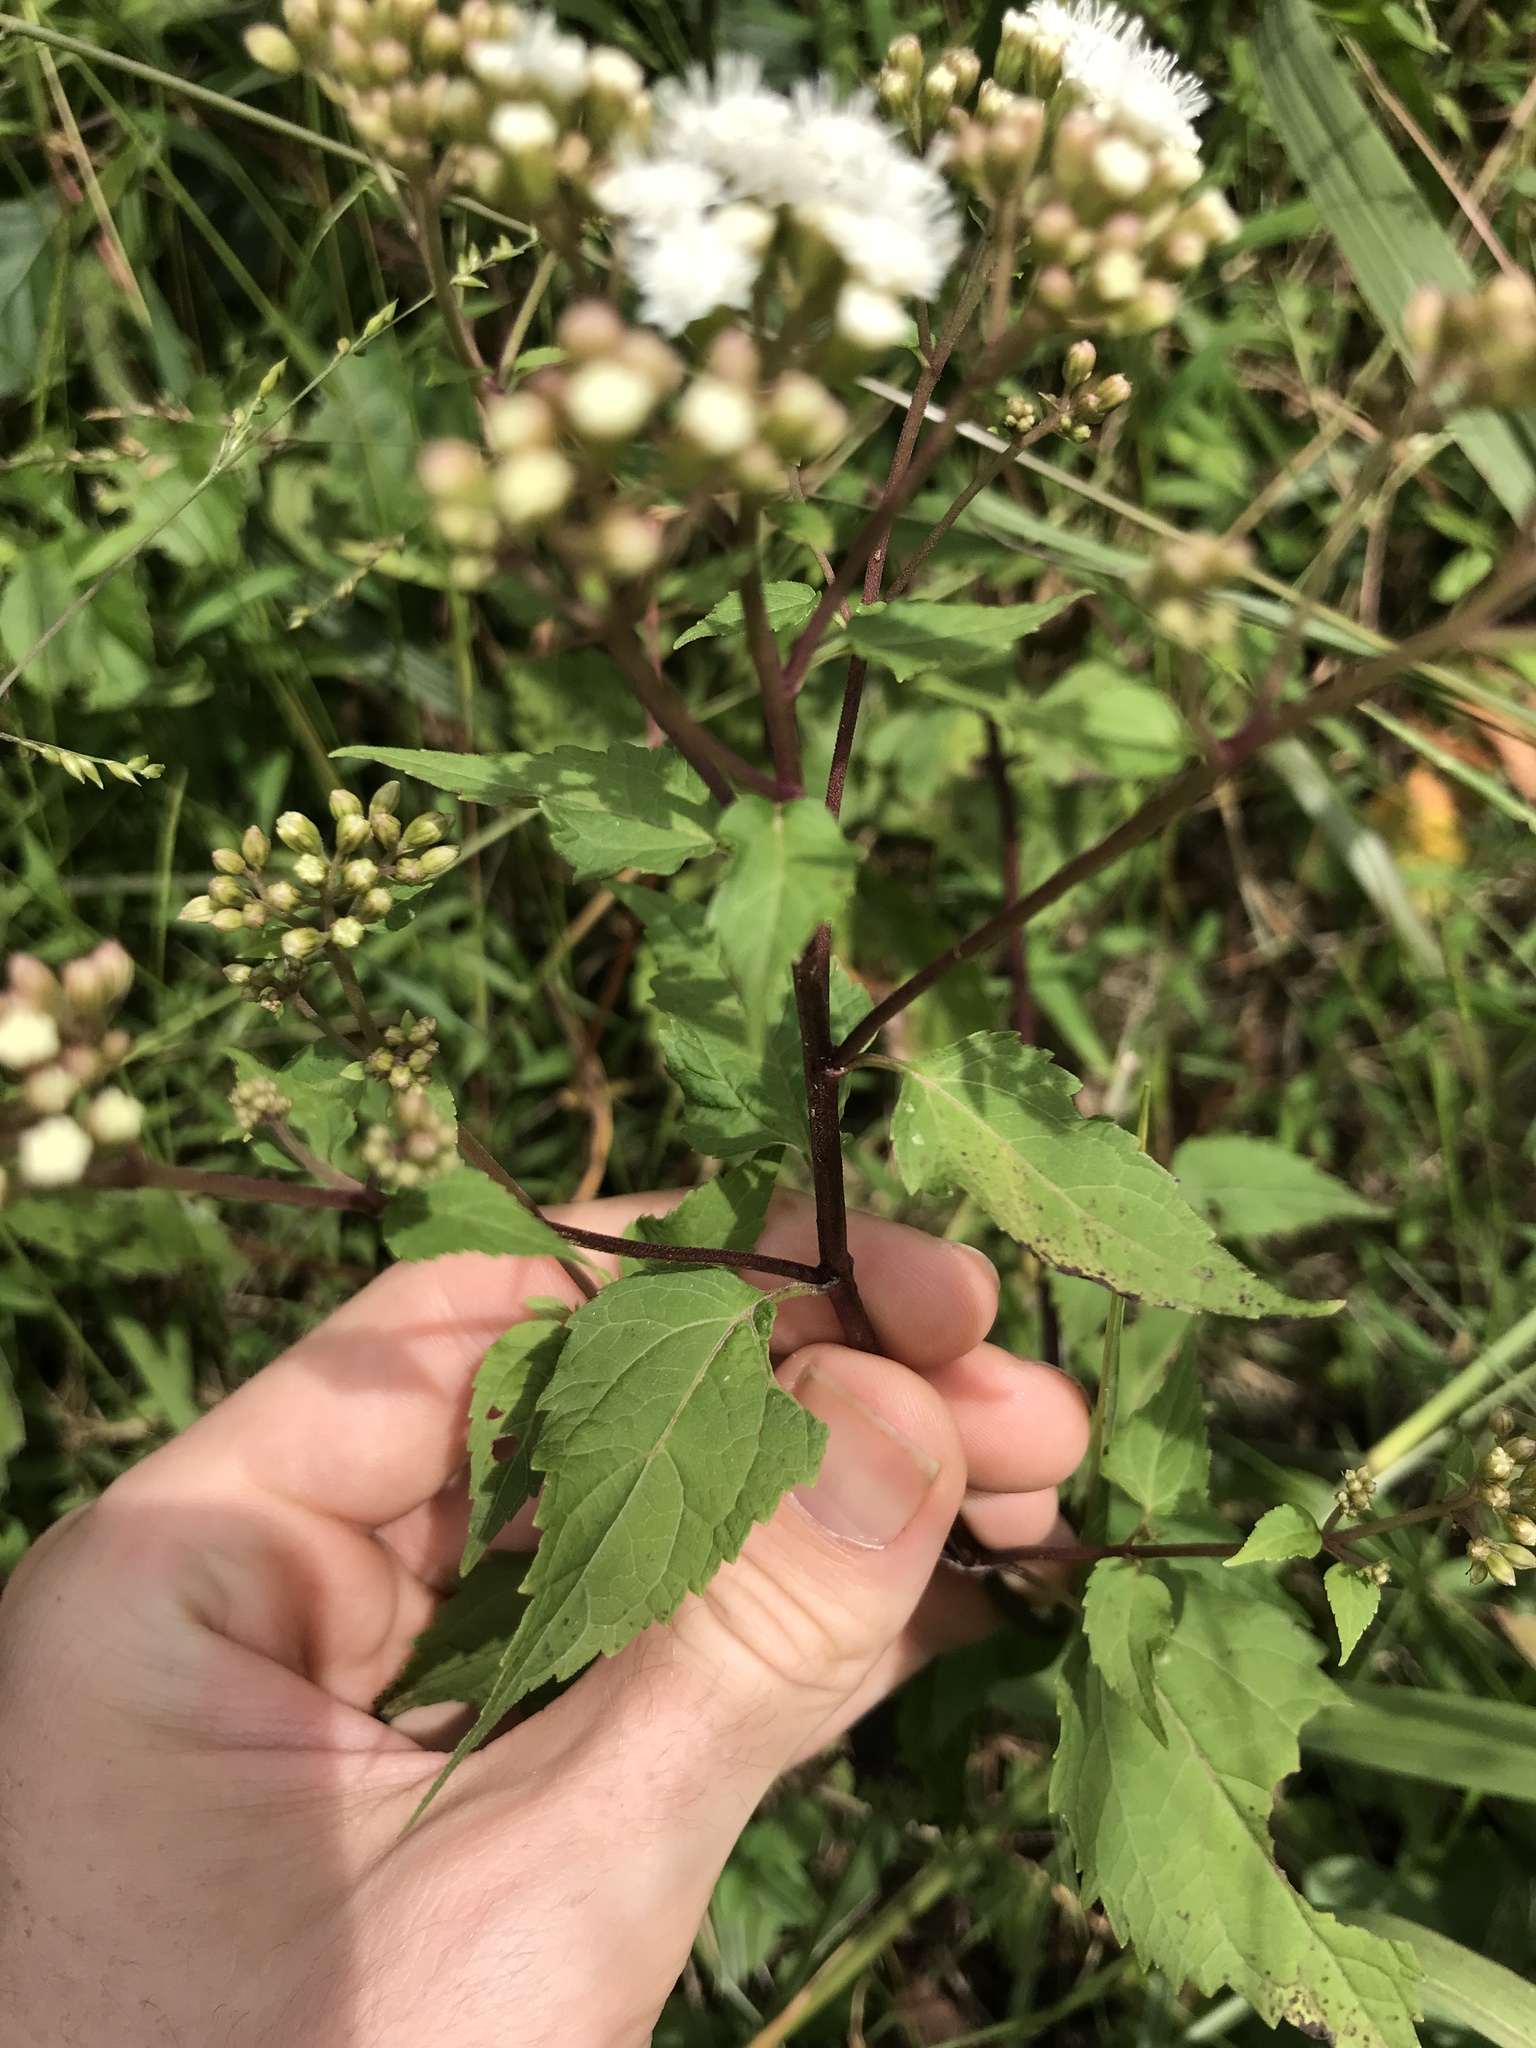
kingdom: Plantae
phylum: Tracheophyta
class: Magnoliopsida
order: Asterales
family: Asteraceae
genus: Ageratina
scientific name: Ageratina altissima
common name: White snakeroot
